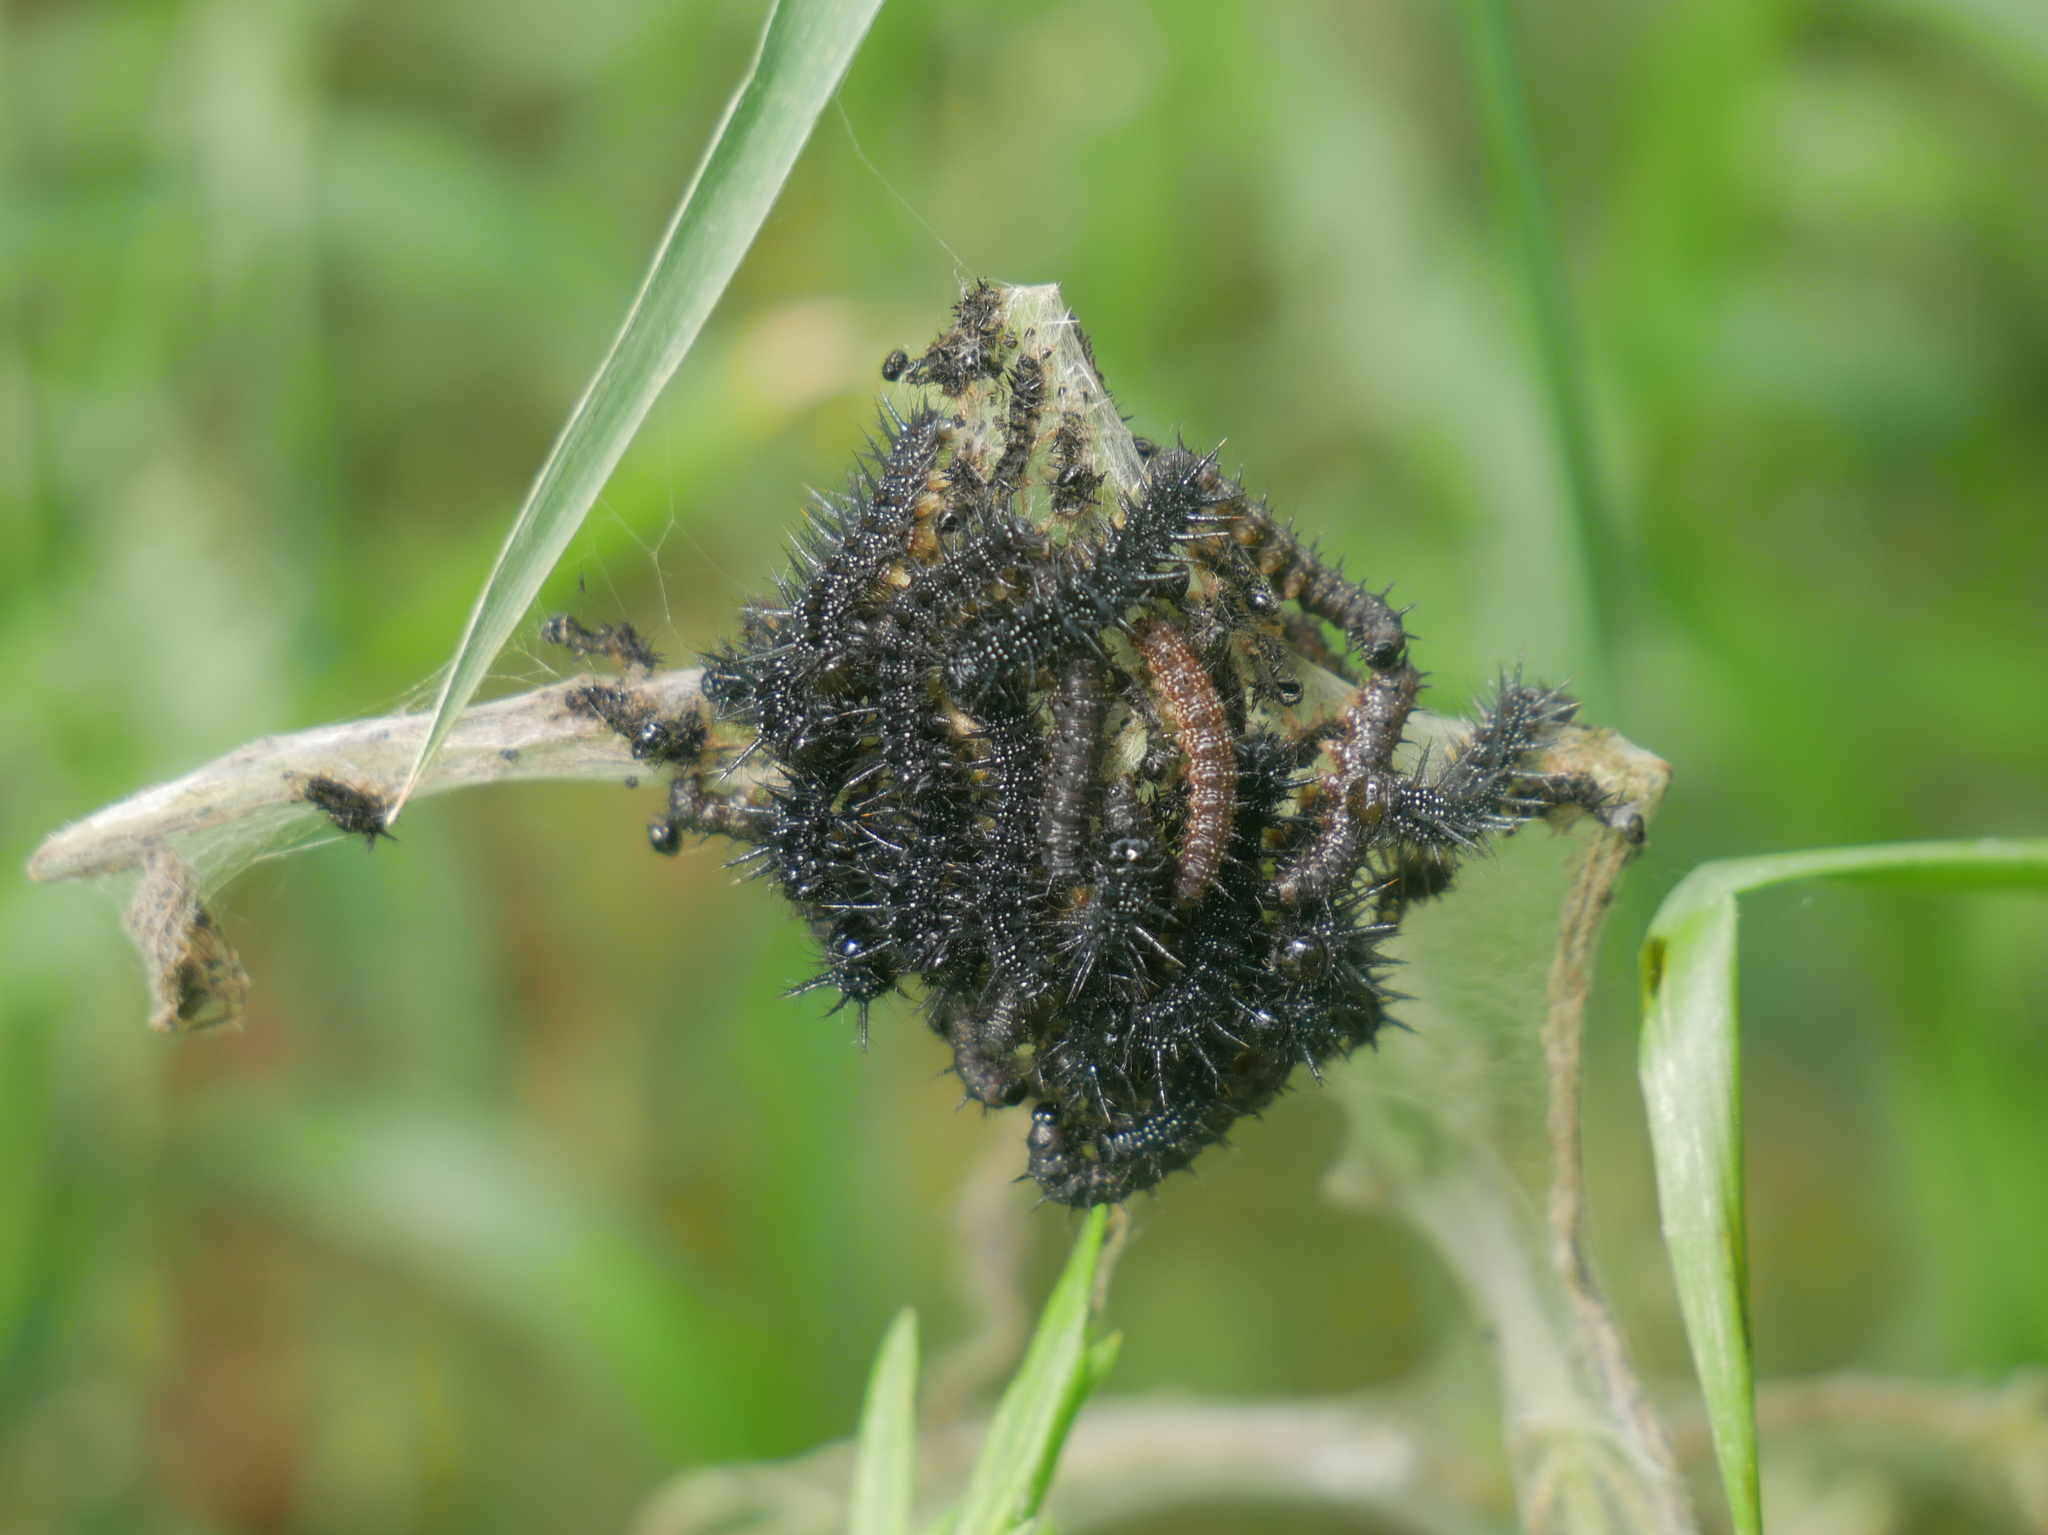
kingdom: Animalia
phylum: Arthropoda
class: Insecta
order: Lepidoptera
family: Nymphalidae
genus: Aglais
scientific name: Aglais io
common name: Peacock
